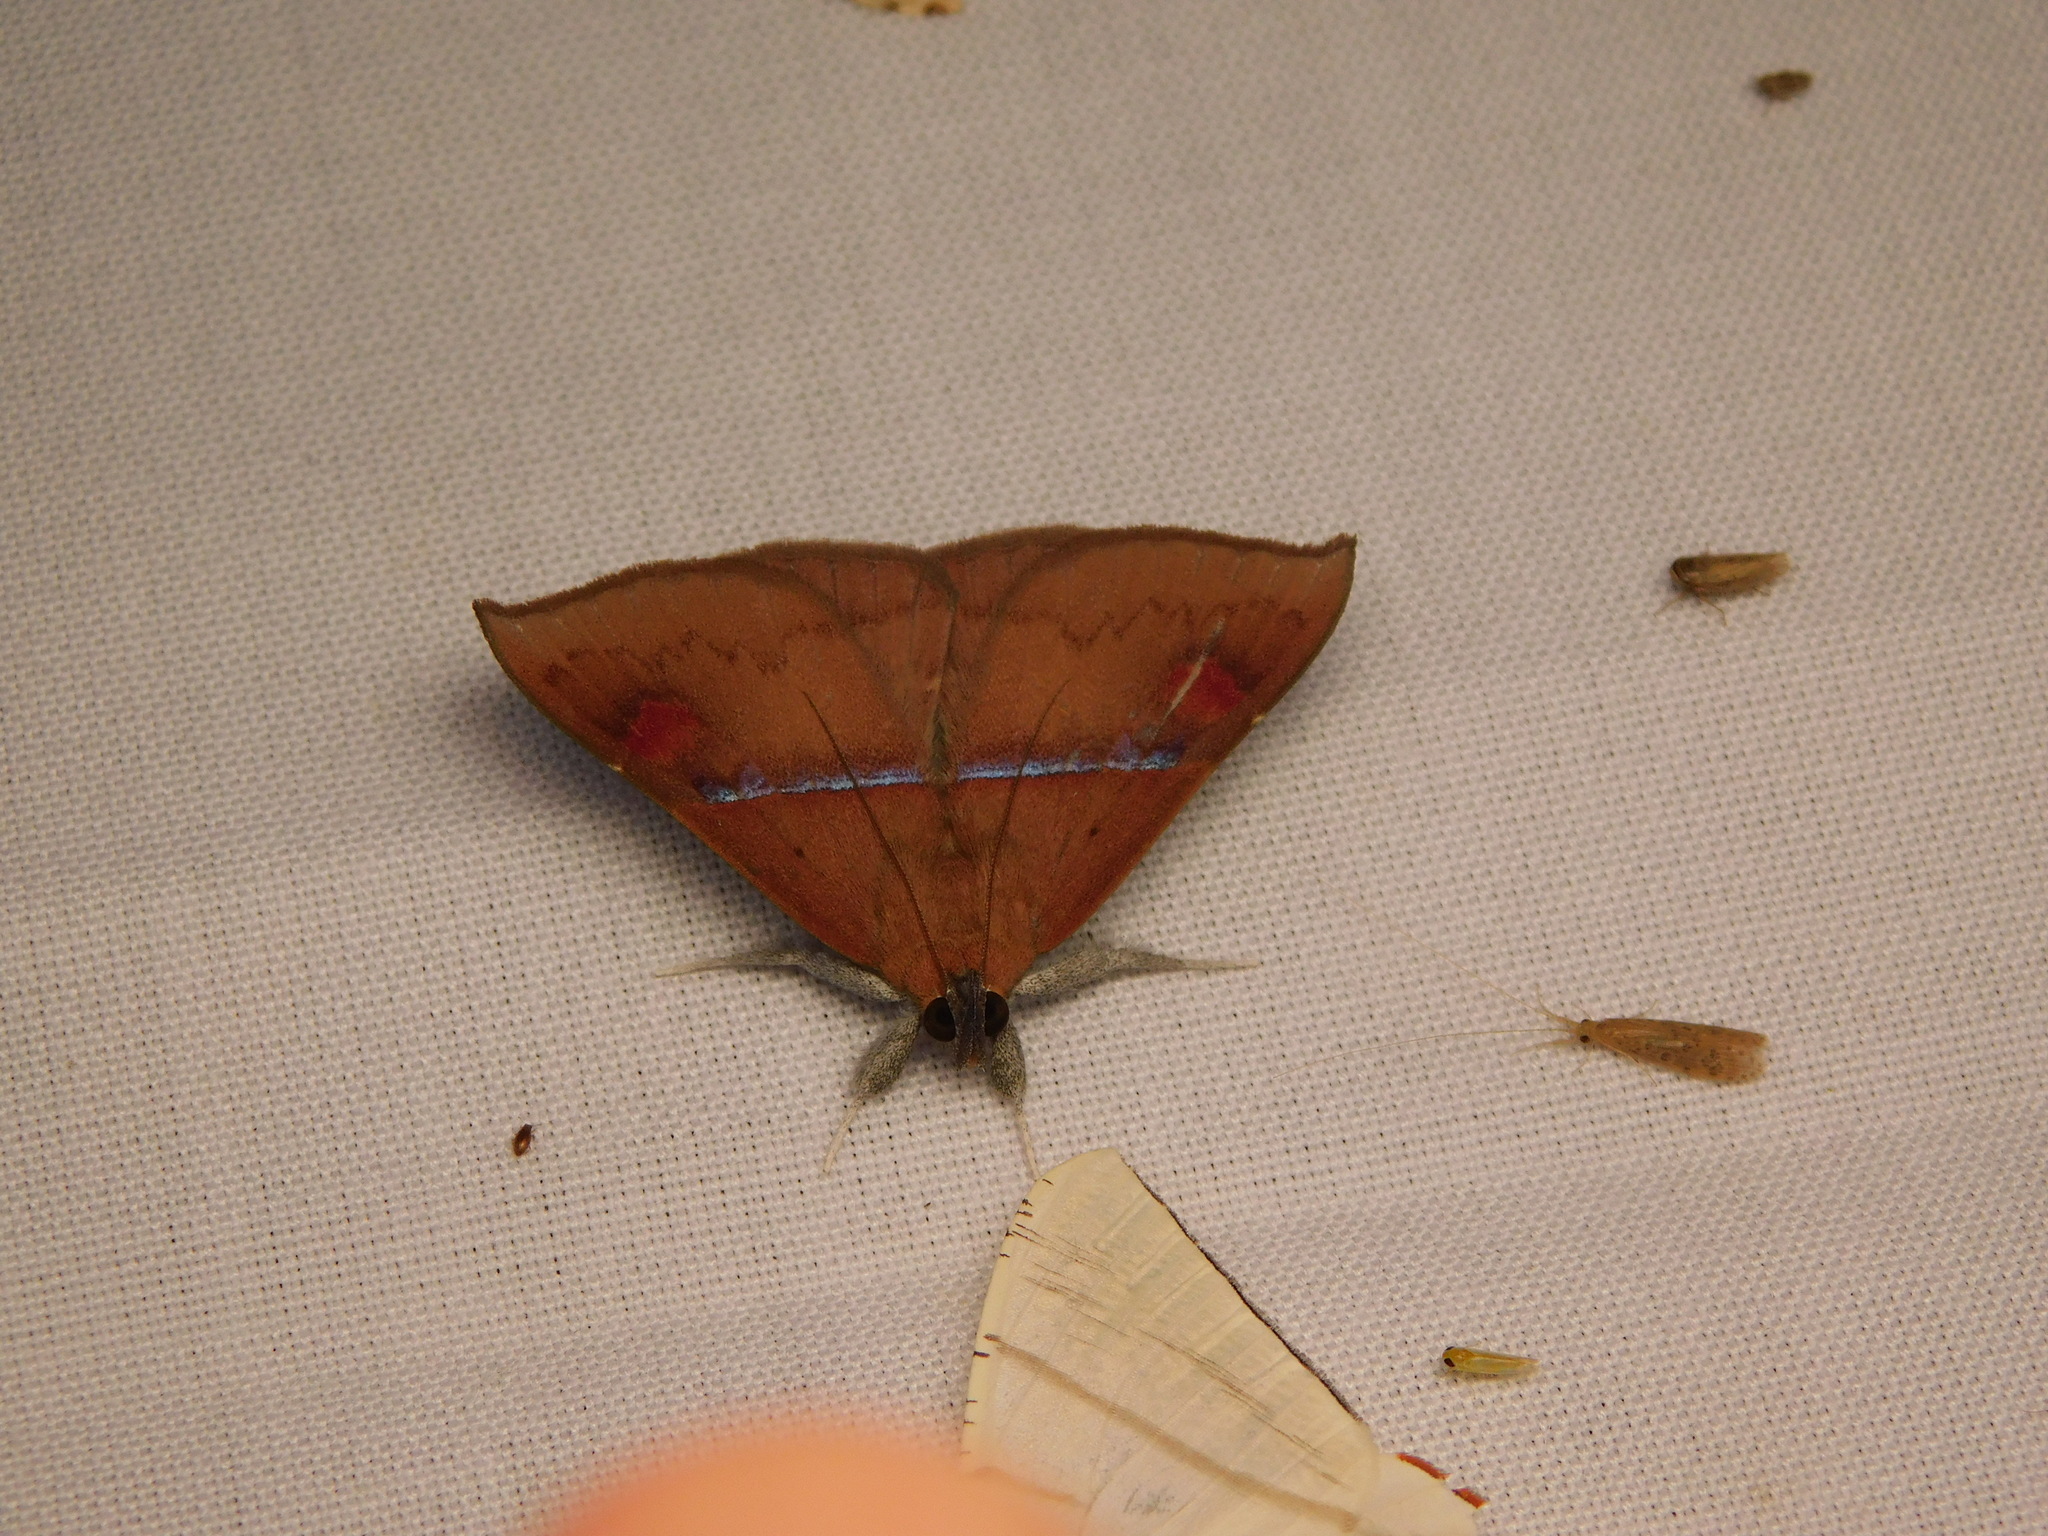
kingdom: Animalia
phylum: Arthropoda
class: Insecta
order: Lepidoptera
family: Erebidae
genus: Sympis
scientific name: Sympis rufibasis
